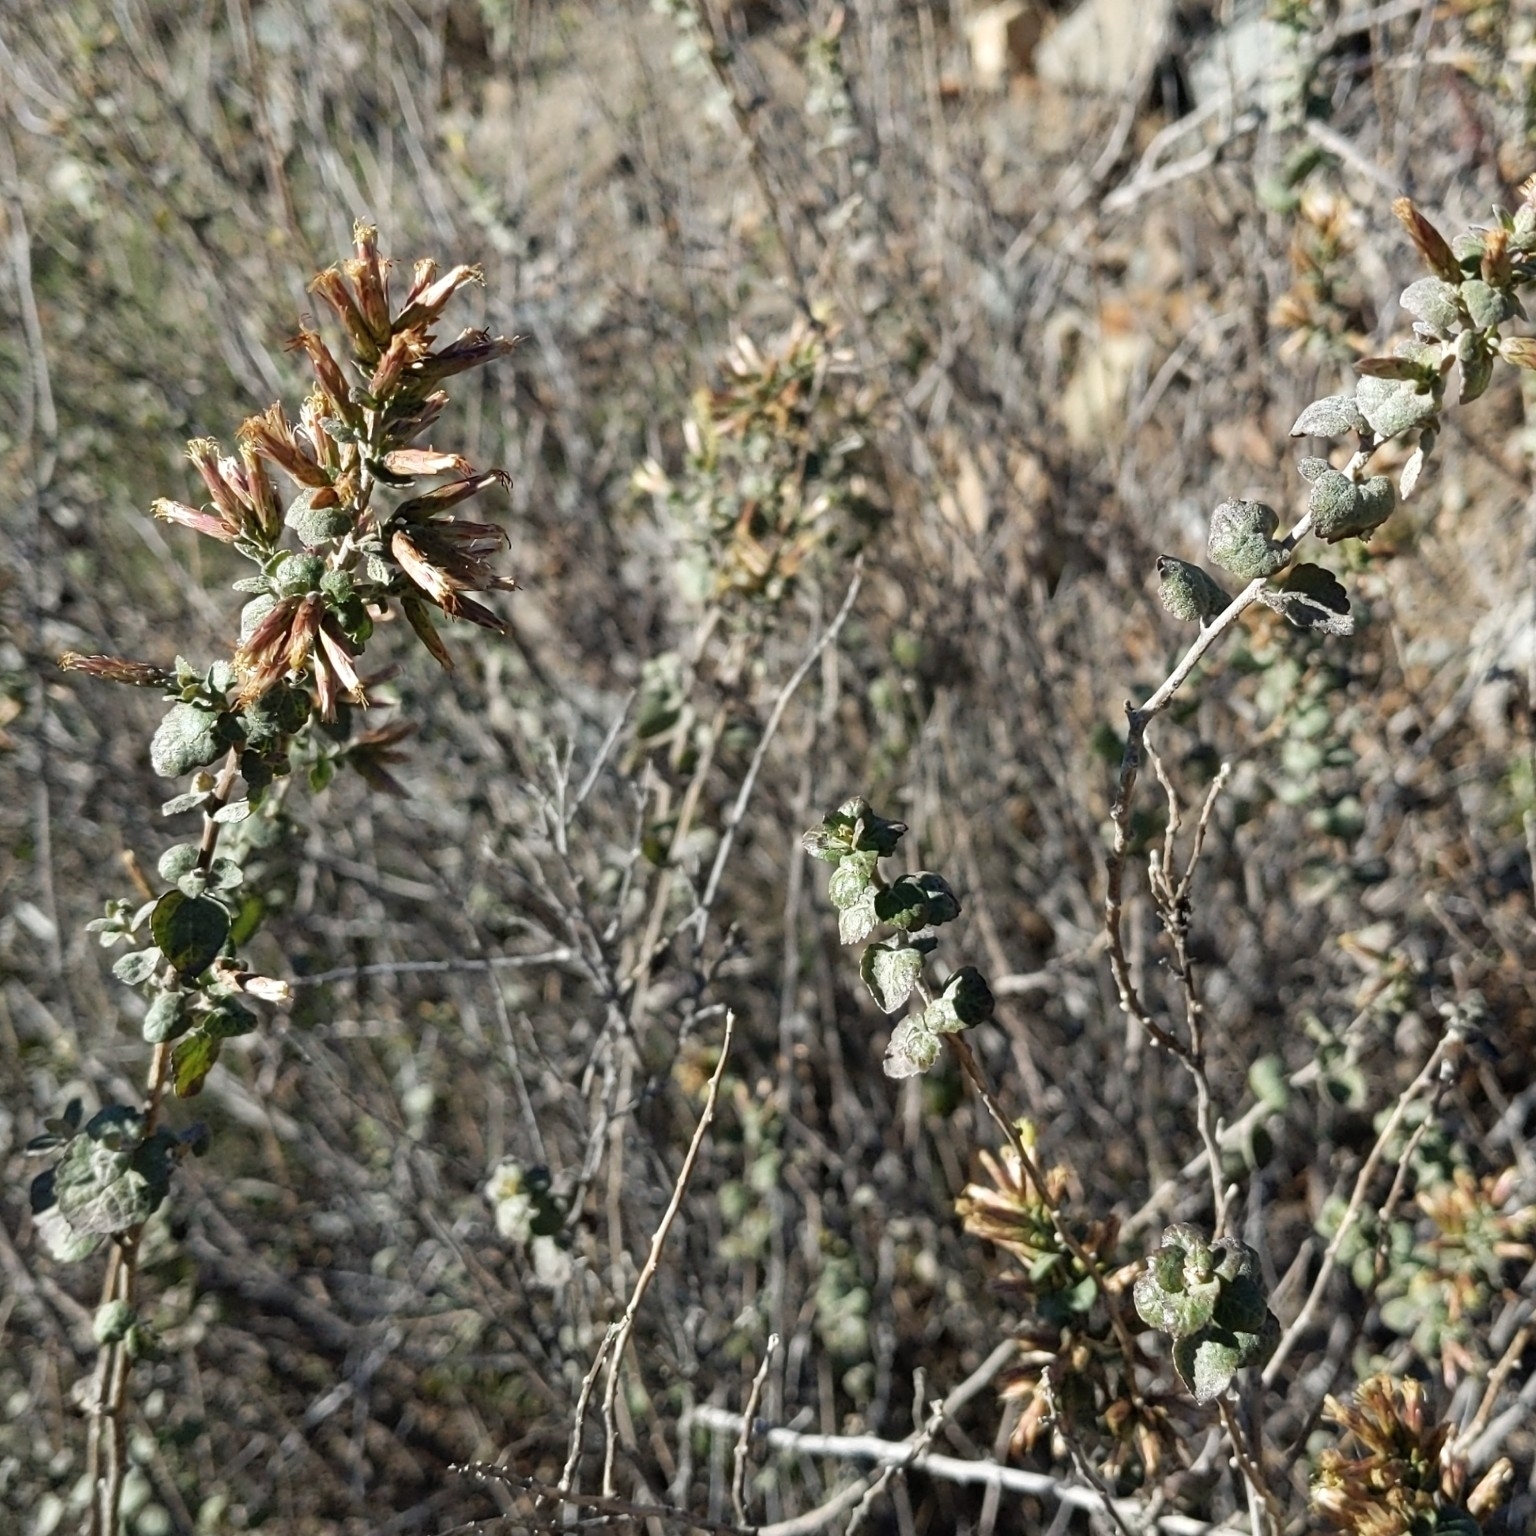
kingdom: Plantae
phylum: Tracheophyta
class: Magnoliopsida
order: Asterales
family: Asteraceae
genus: Brickellia
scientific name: Brickellia californica
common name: California brickellbush
